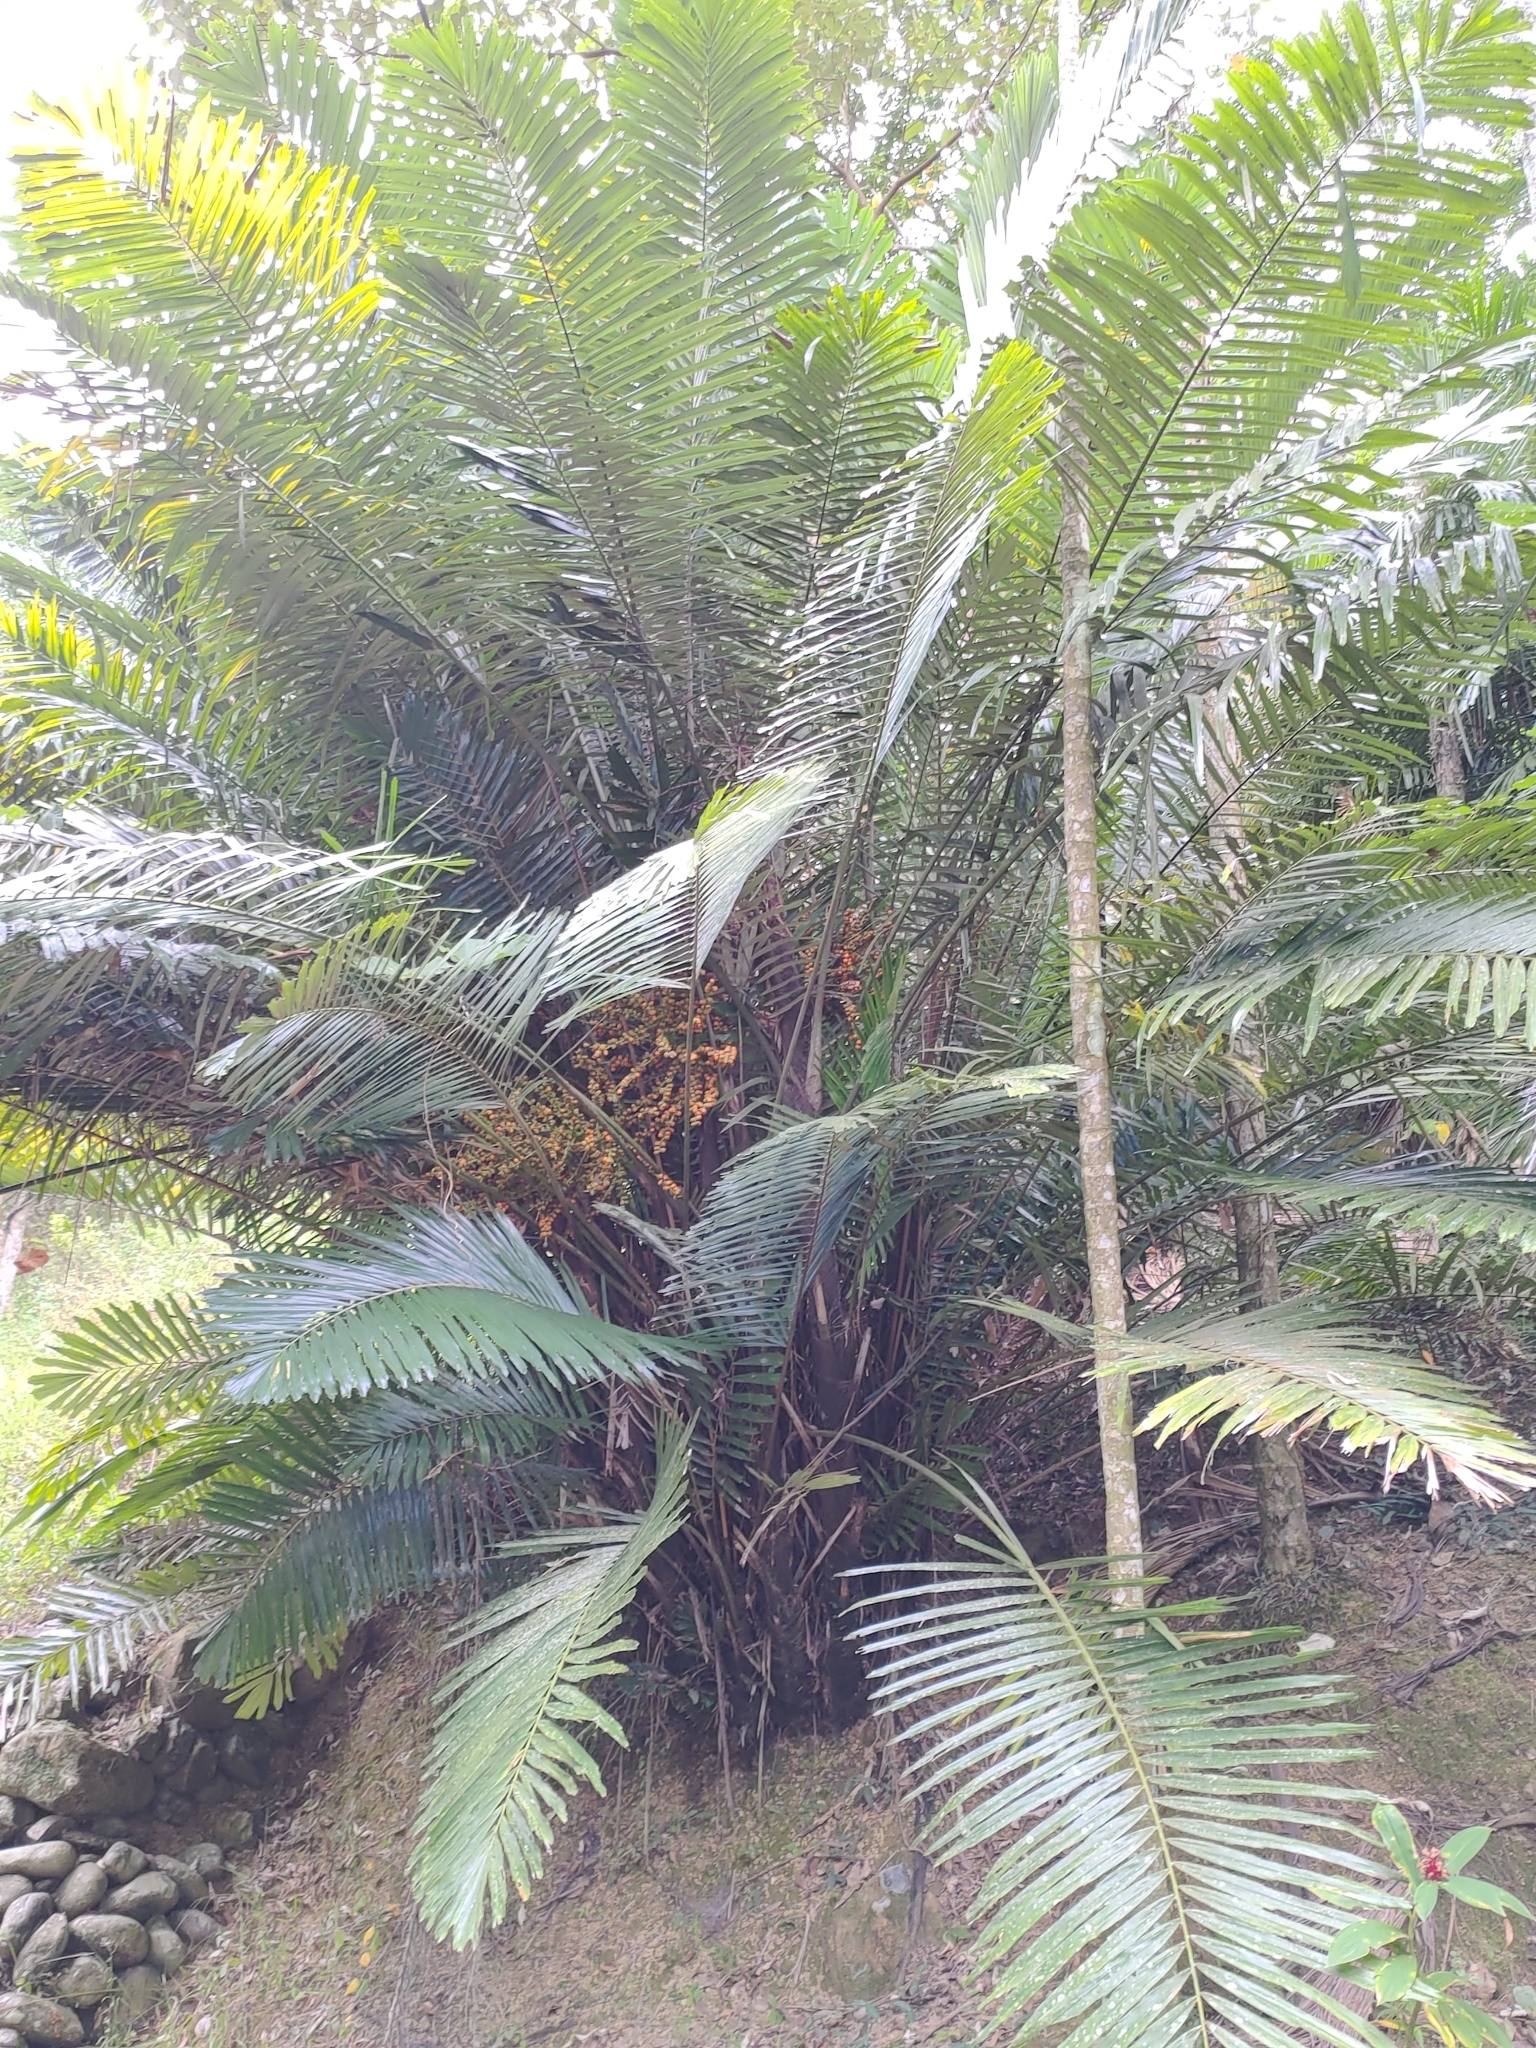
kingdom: Plantae
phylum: Tracheophyta
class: Liliopsida
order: Arecales
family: Arecaceae
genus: Arenga
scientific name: Arenga engleri
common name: Formosan sugar palm
